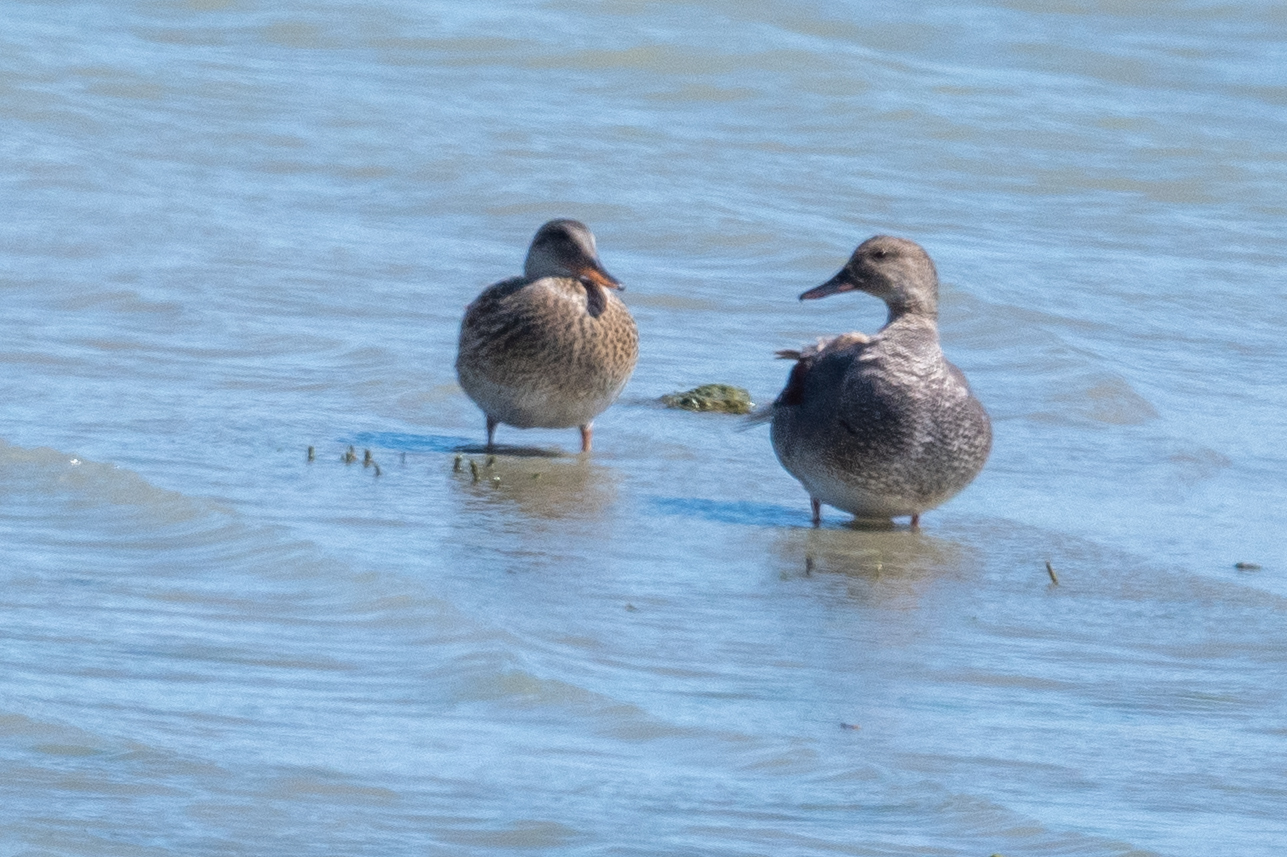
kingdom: Animalia
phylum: Chordata
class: Aves
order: Anseriformes
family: Anatidae
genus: Mareca
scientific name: Mareca strepera
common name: Gadwall
